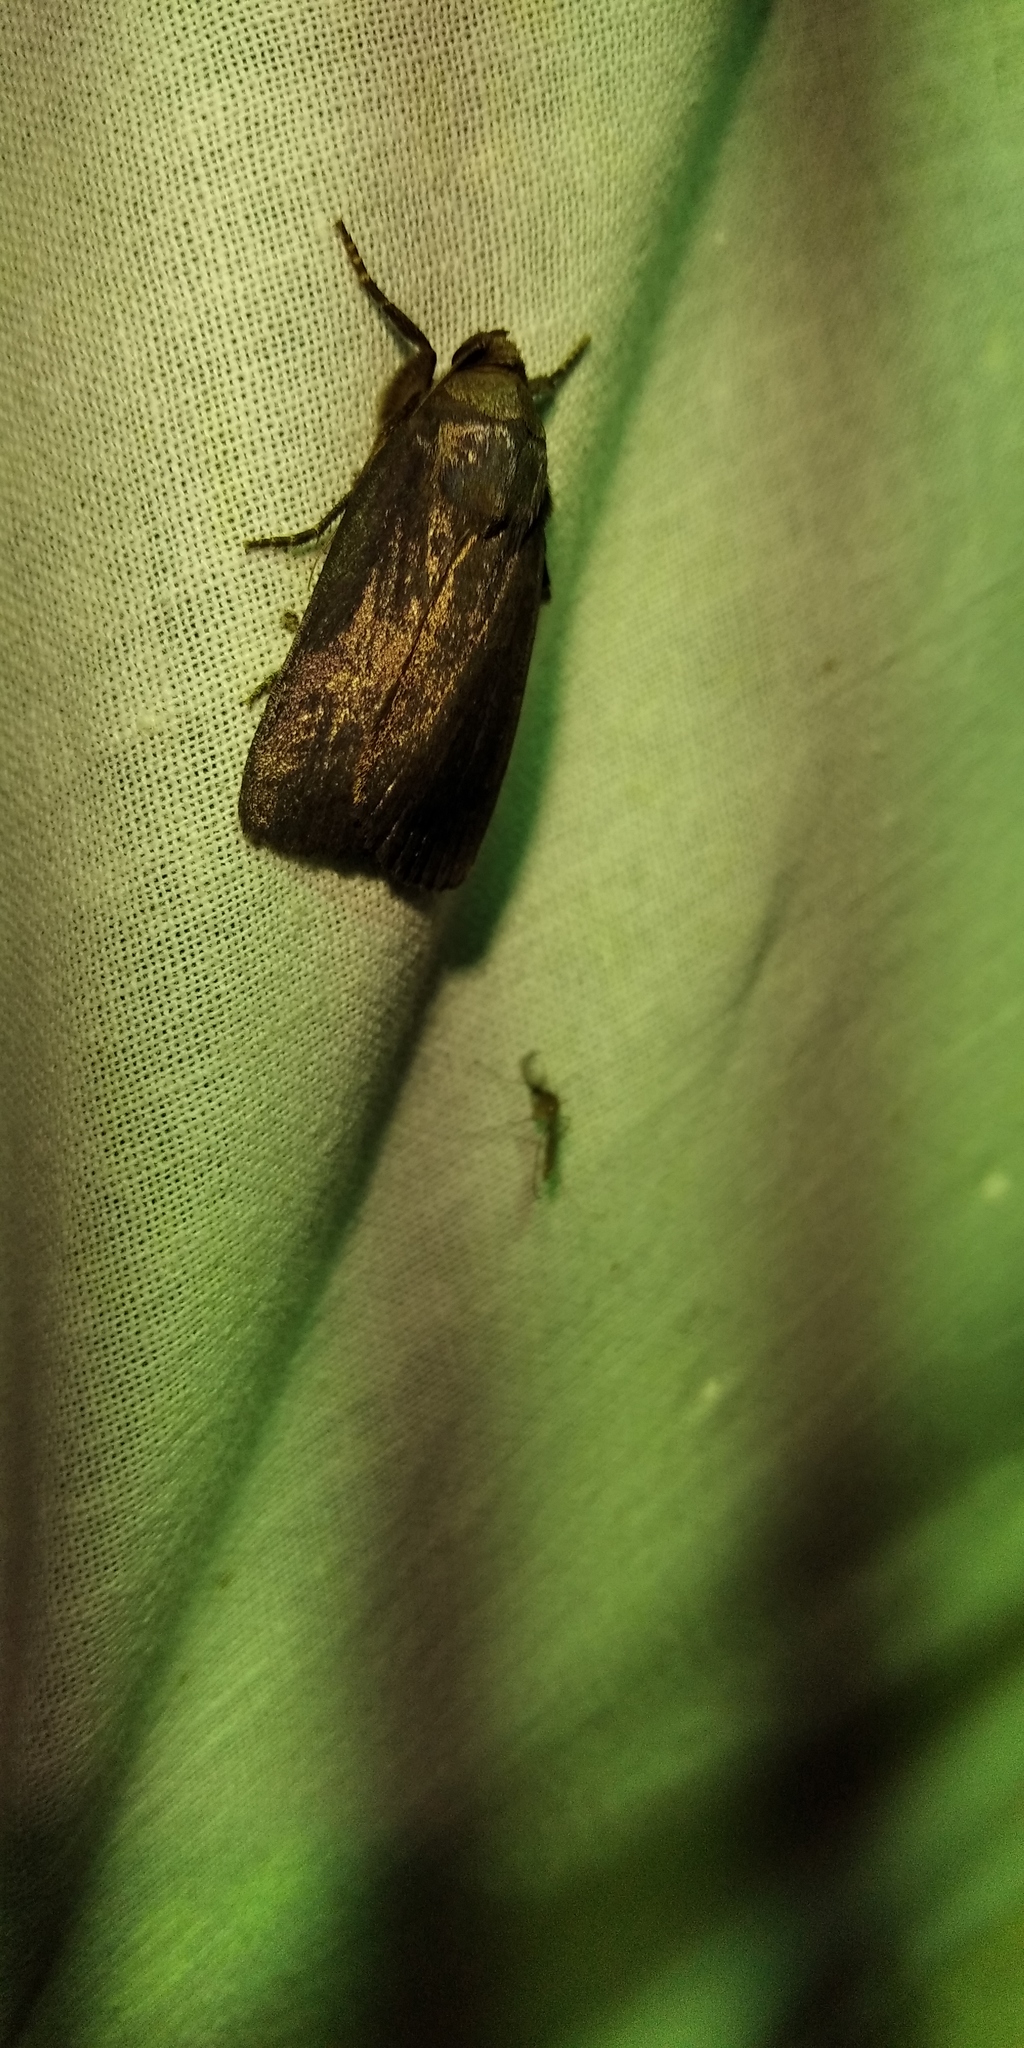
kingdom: Animalia
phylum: Arthropoda
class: Insecta
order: Lepidoptera
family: Noctuidae
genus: Amphipyra
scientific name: Amphipyra livida
